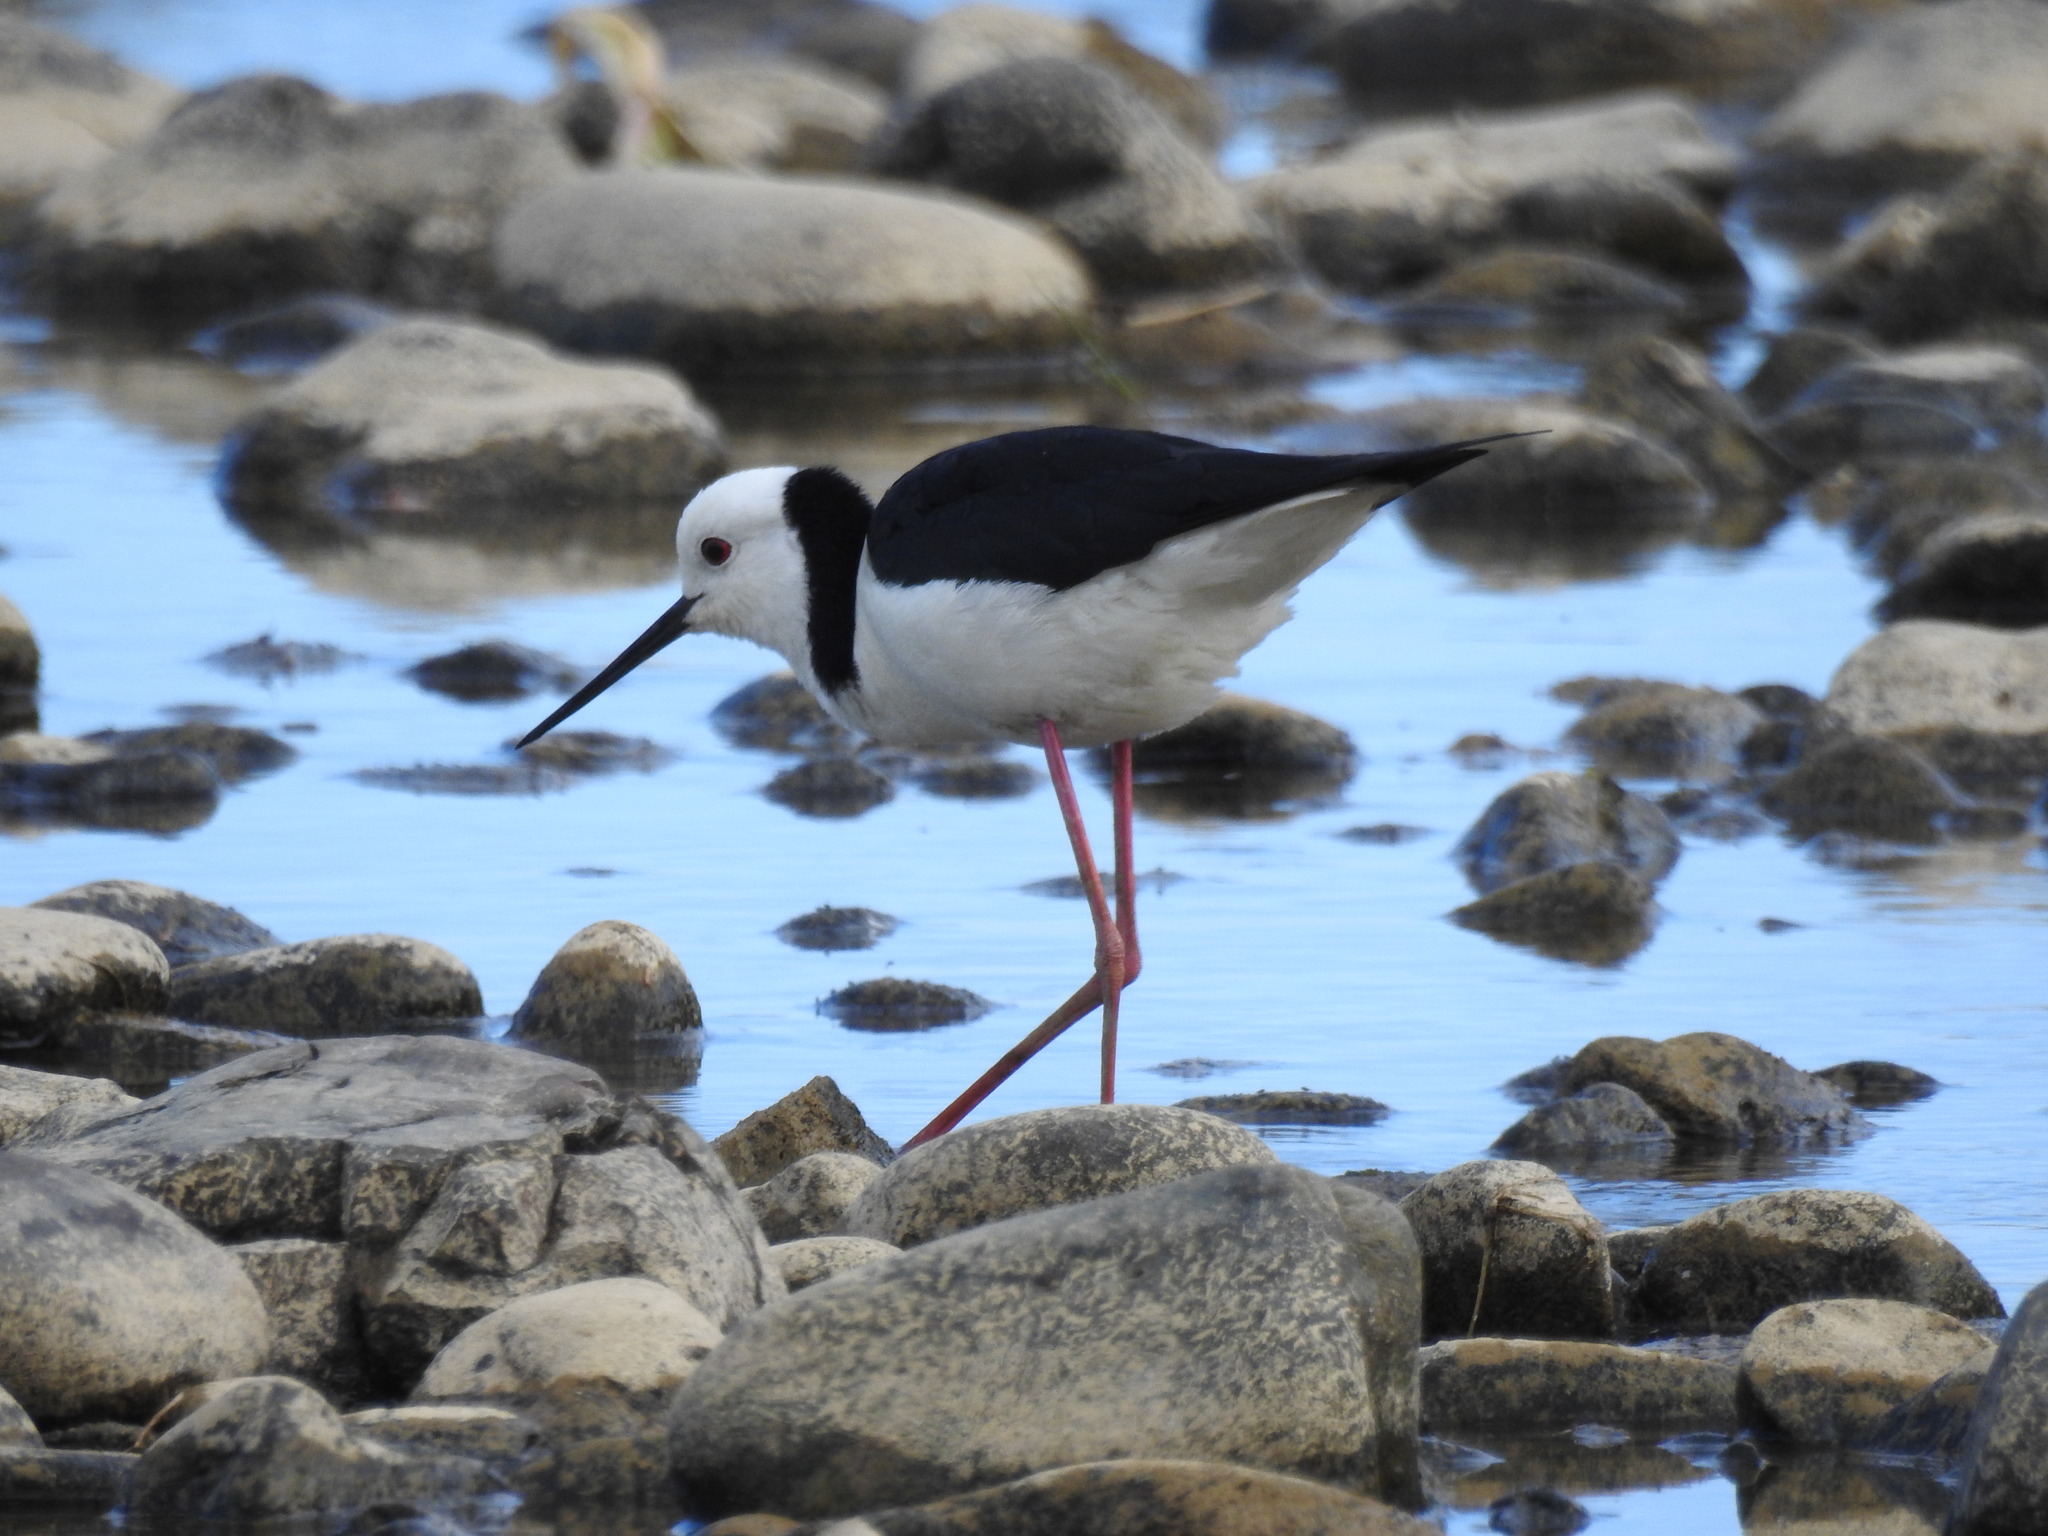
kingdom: Animalia
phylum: Chordata
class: Aves
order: Charadriiformes
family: Recurvirostridae
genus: Himantopus
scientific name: Himantopus leucocephalus
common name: White-headed stilt
